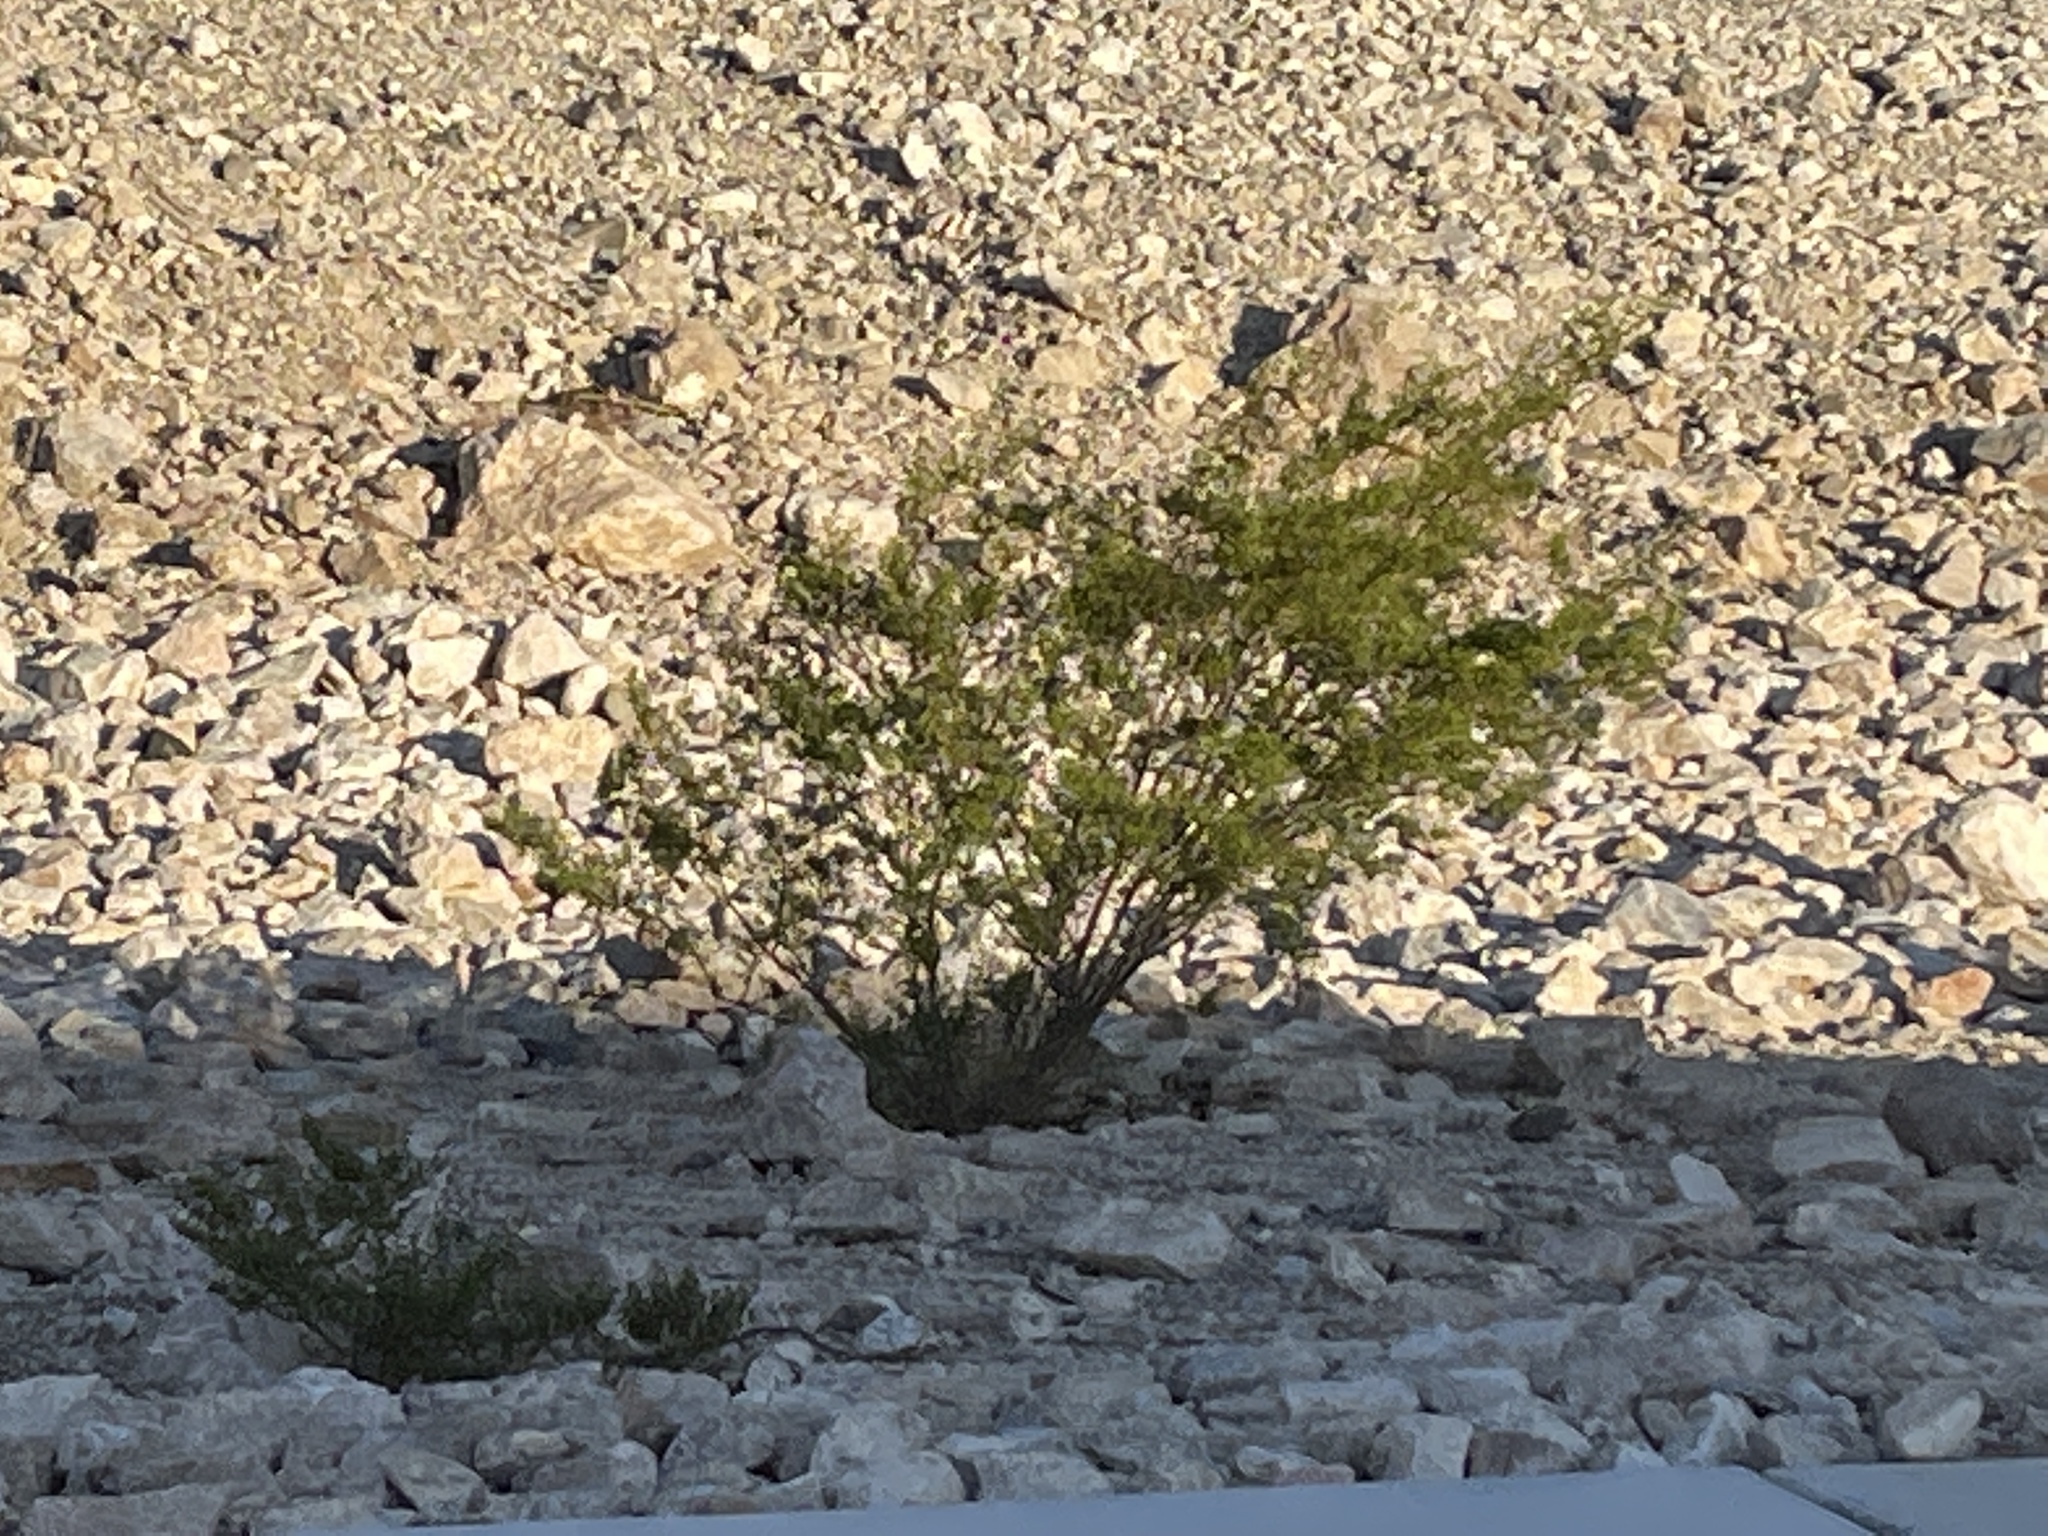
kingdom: Plantae
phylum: Tracheophyta
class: Magnoliopsida
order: Zygophyllales
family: Zygophyllaceae
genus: Larrea
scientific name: Larrea tridentata
